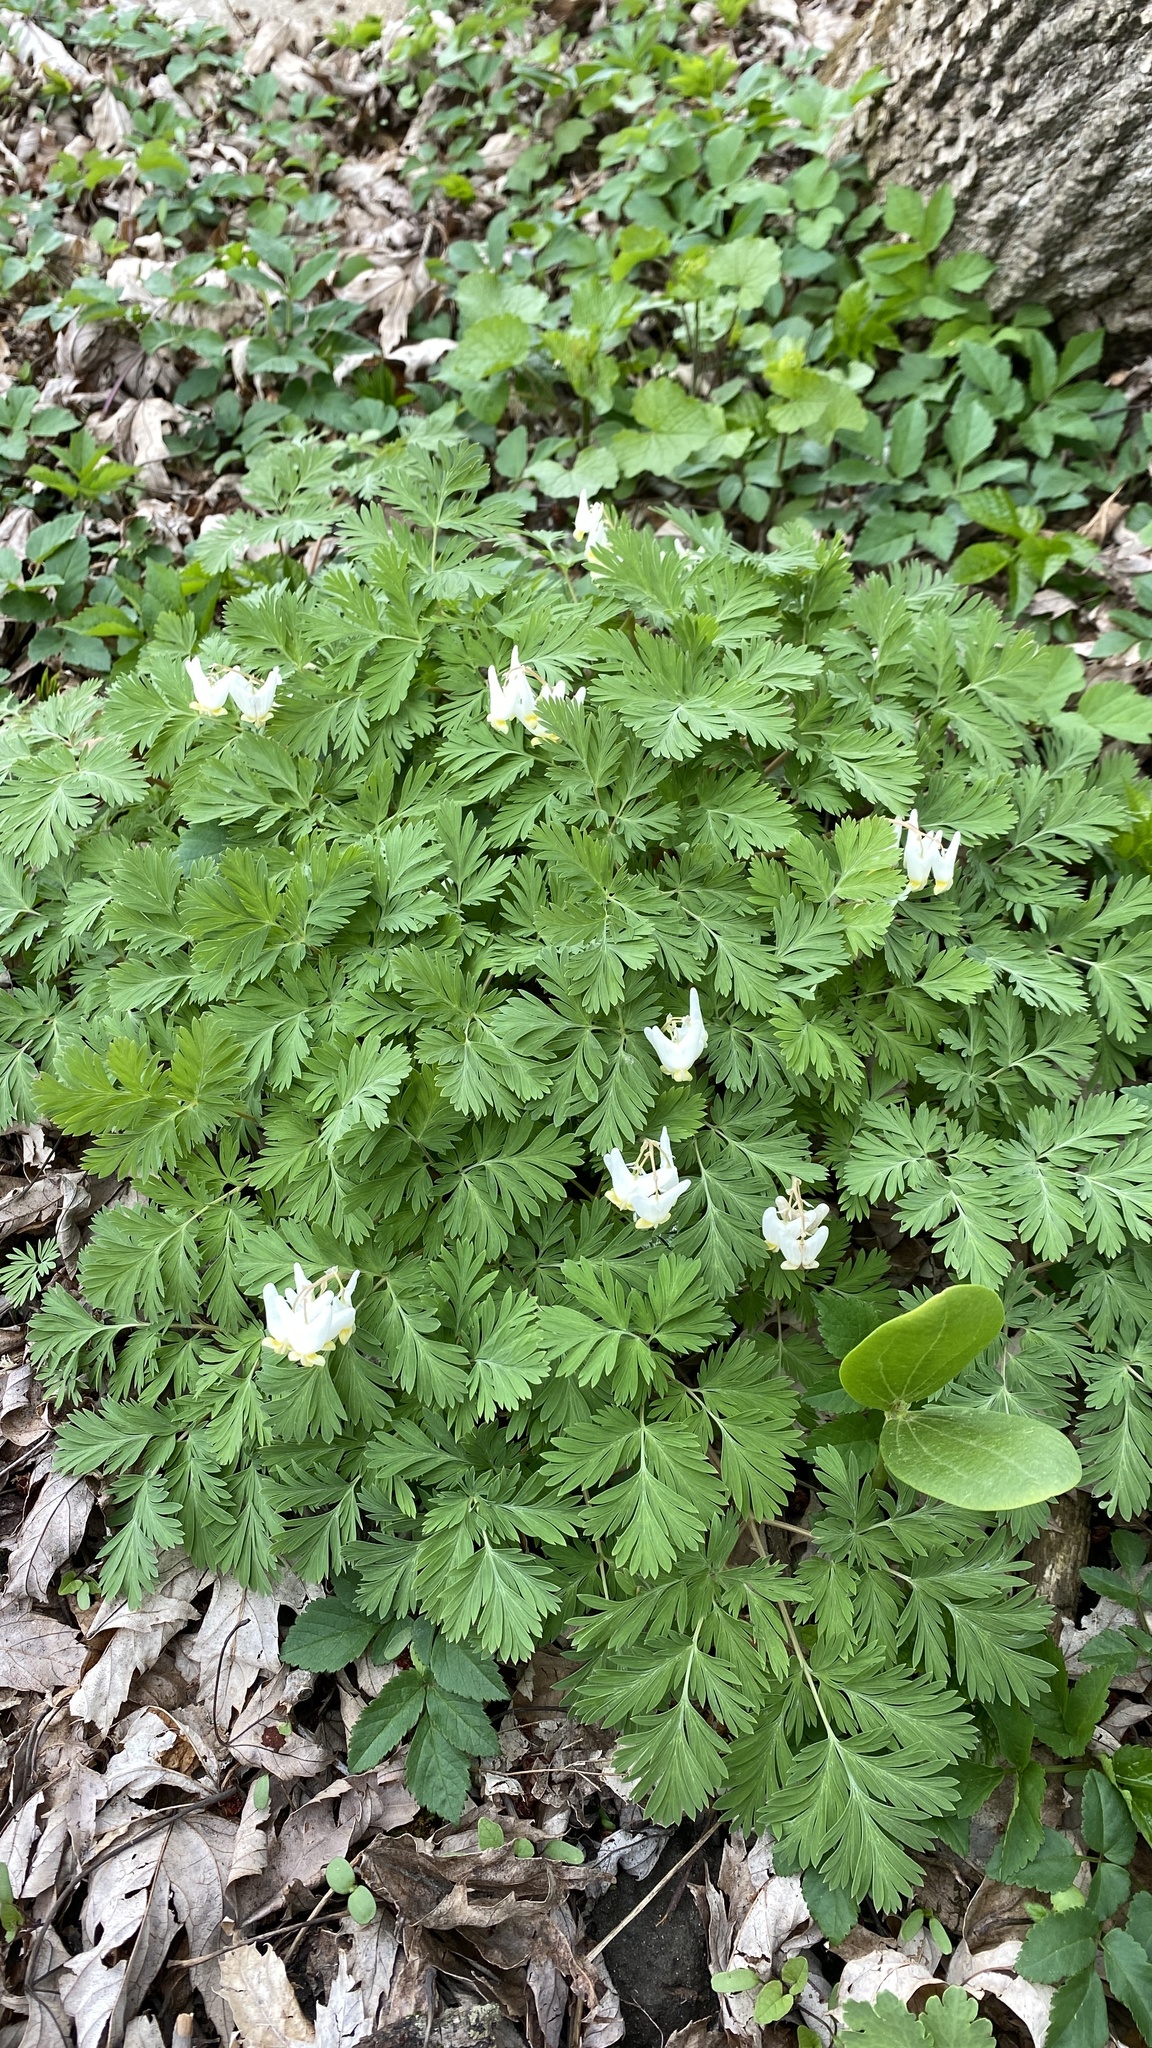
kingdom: Plantae
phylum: Tracheophyta
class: Magnoliopsida
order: Ranunculales
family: Papaveraceae
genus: Dicentra
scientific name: Dicentra cucullaria
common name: Dutchman's breeches
